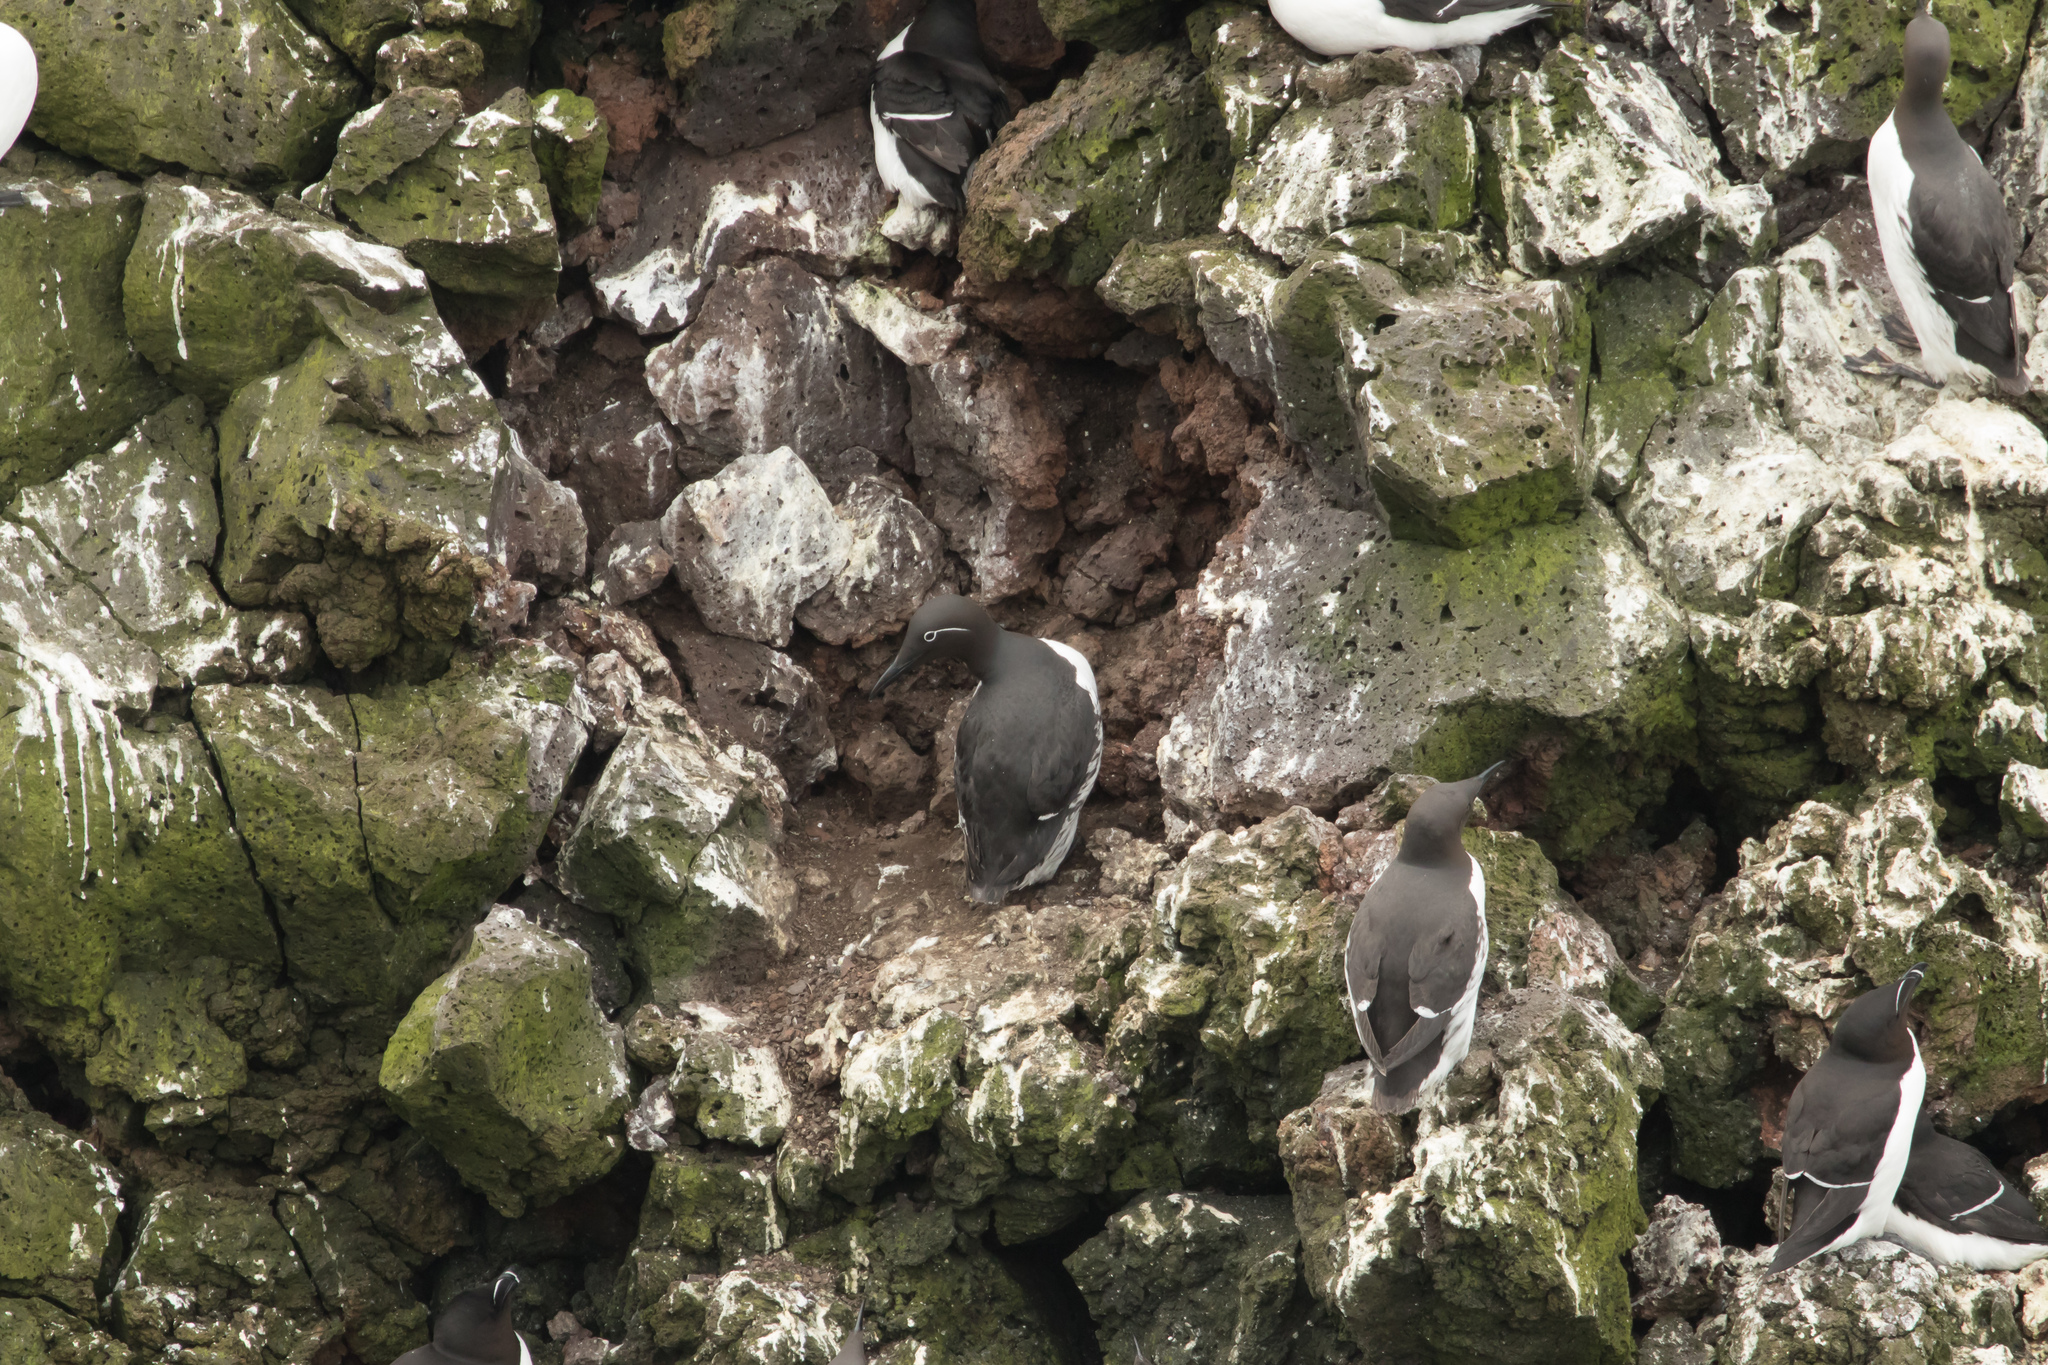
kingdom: Animalia
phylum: Chordata
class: Aves
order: Charadriiformes
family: Alcidae
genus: Uria
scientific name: Uria aalge
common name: Common murre
